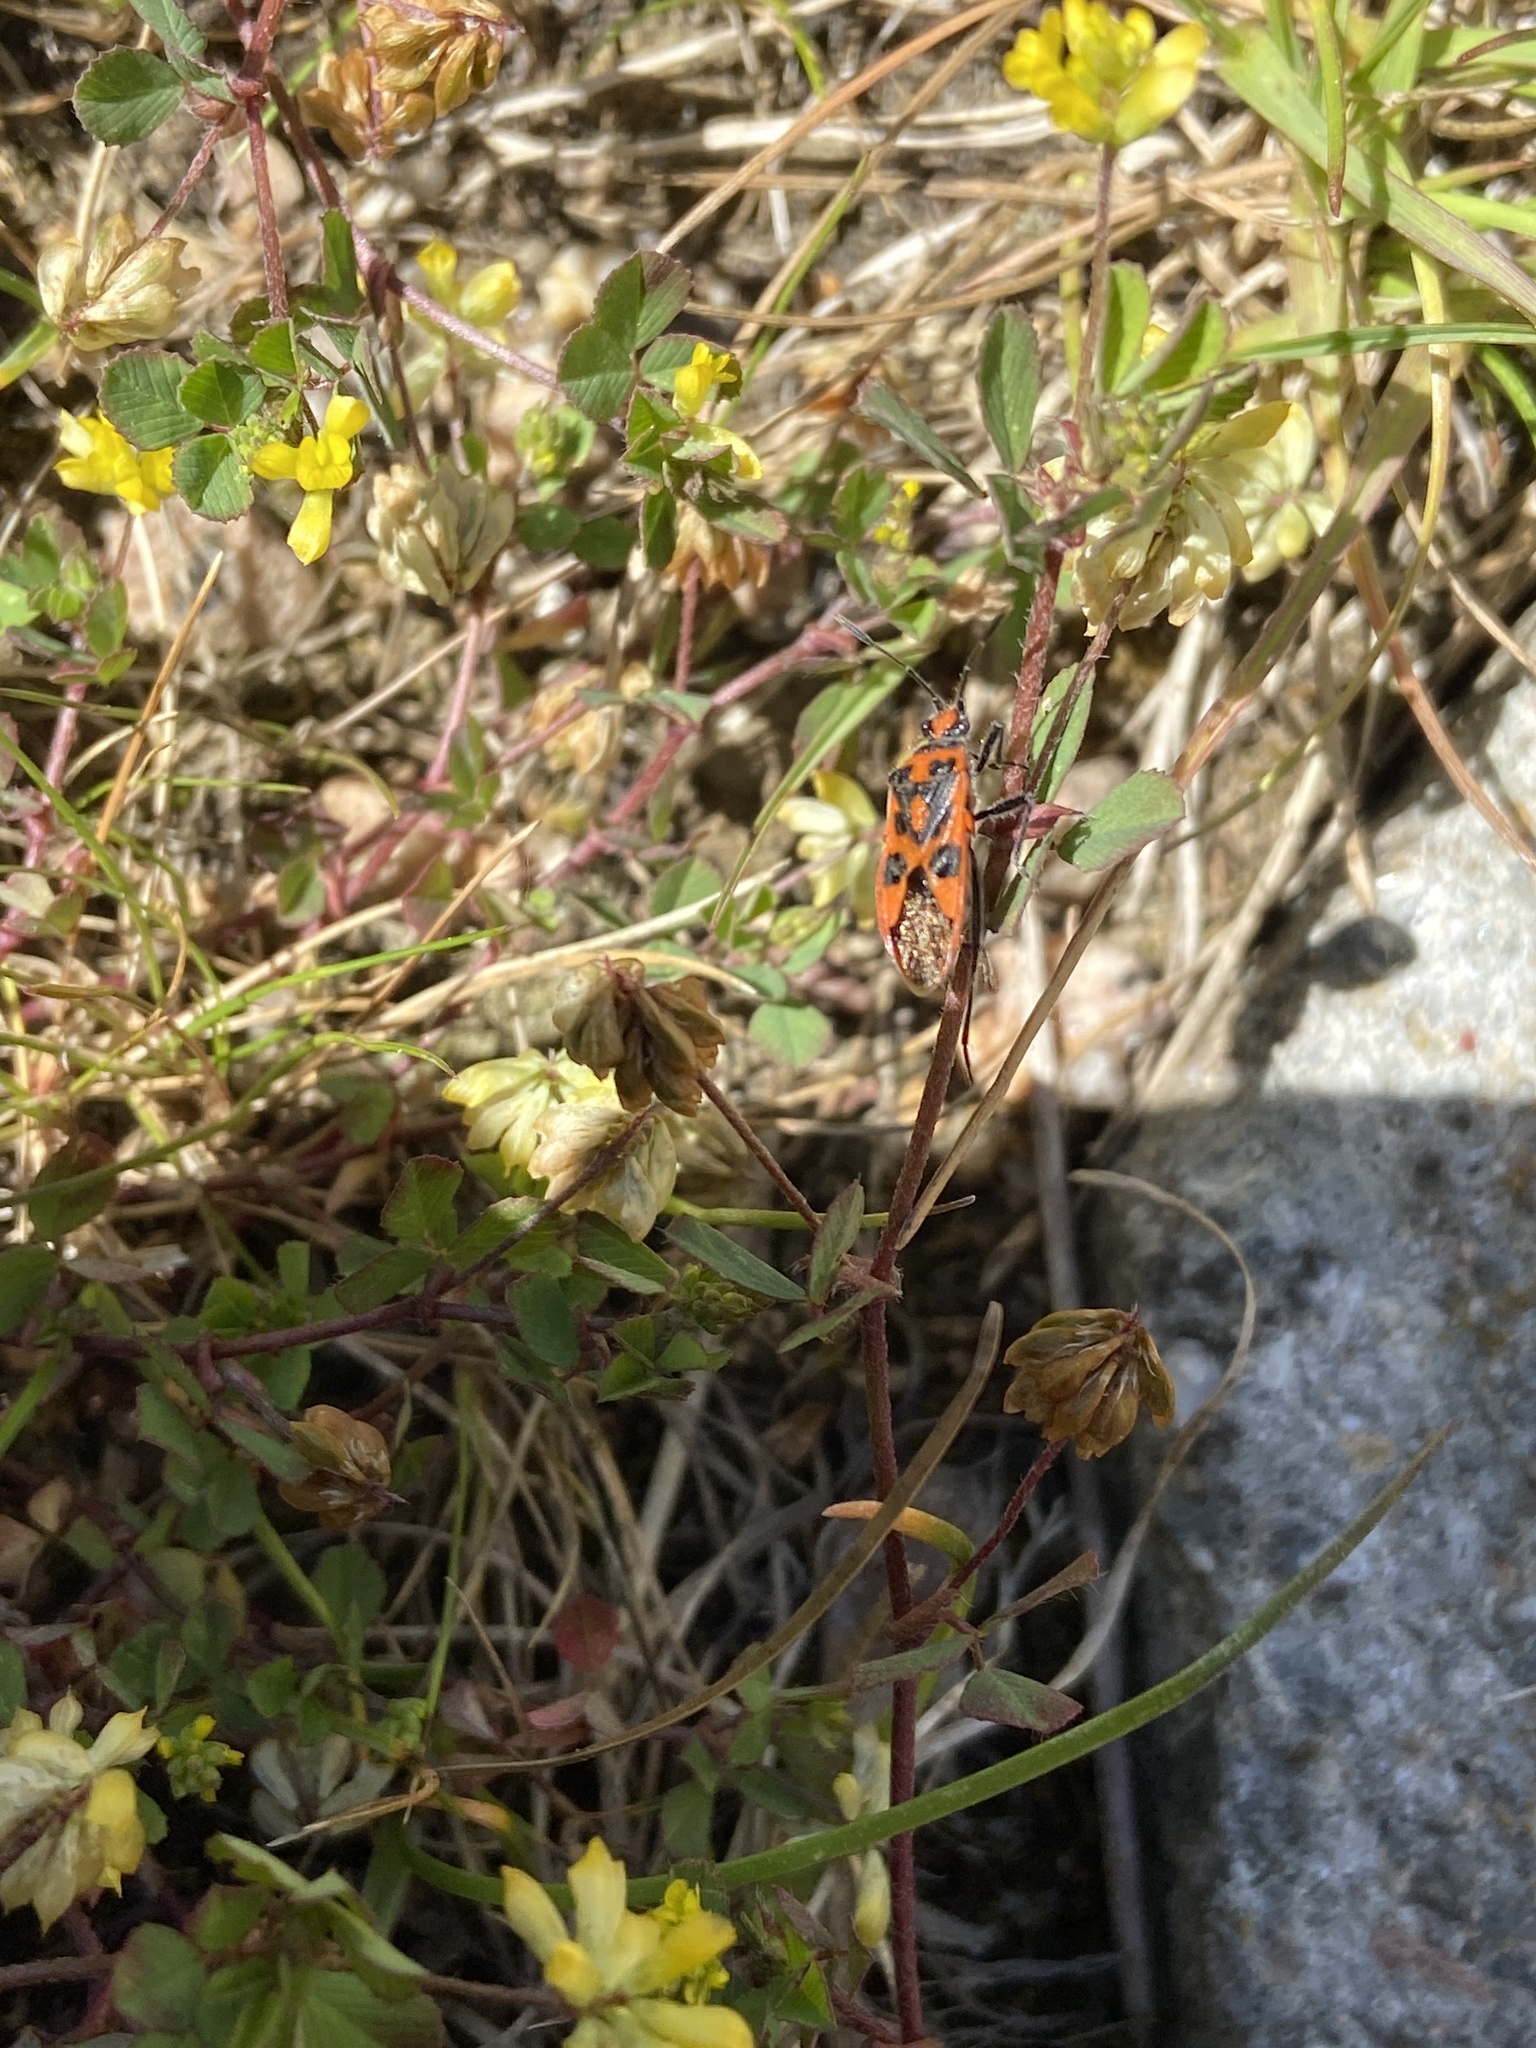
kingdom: Animalia
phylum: Arthropoda
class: Insecta
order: Hemiptera
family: Rhopalidae
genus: Corizus
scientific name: Corizus hyoscyami
